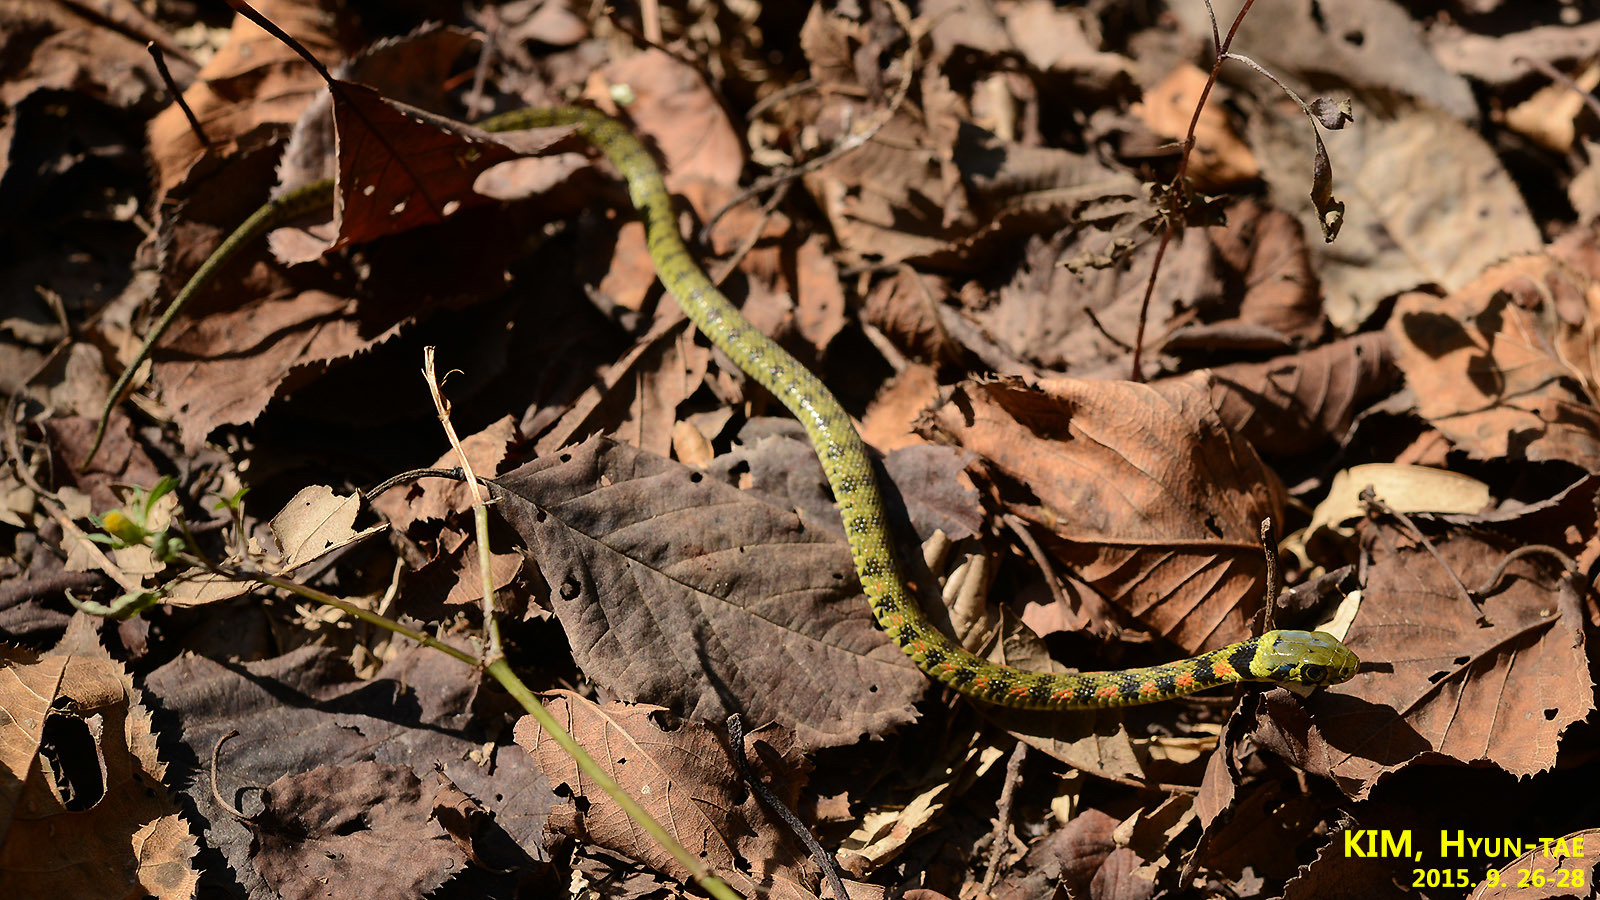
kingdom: Animalia
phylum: Chordata
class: Squamata
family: Colubridae
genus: Rhabdophis
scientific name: Rhabdophis tigrinus
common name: Tiger keelback
